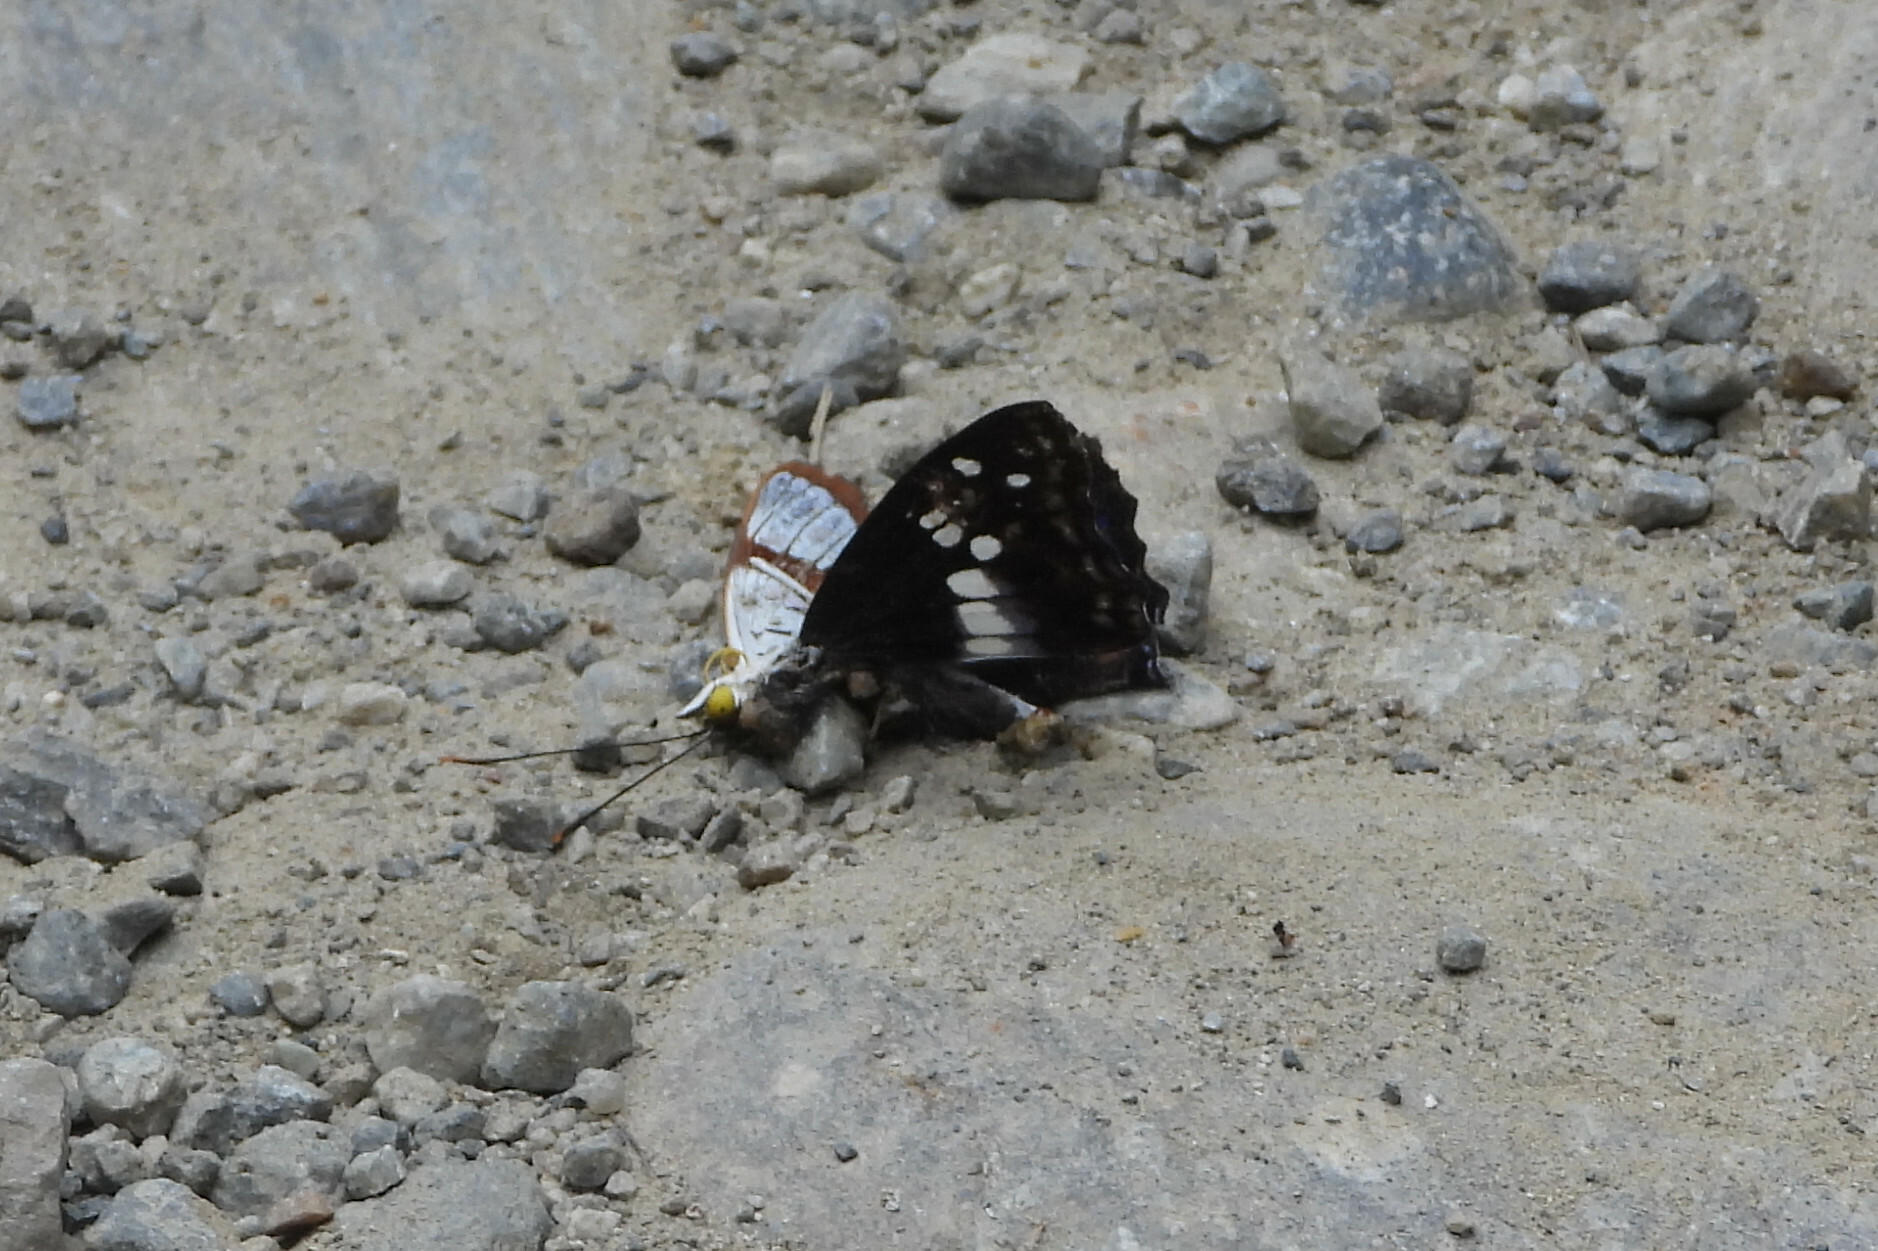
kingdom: Animalia
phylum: Arthropoda
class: Insecta
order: Lepidoptera
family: Nymphalidae
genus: Apatura
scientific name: Apatura Mimathyma ambica
